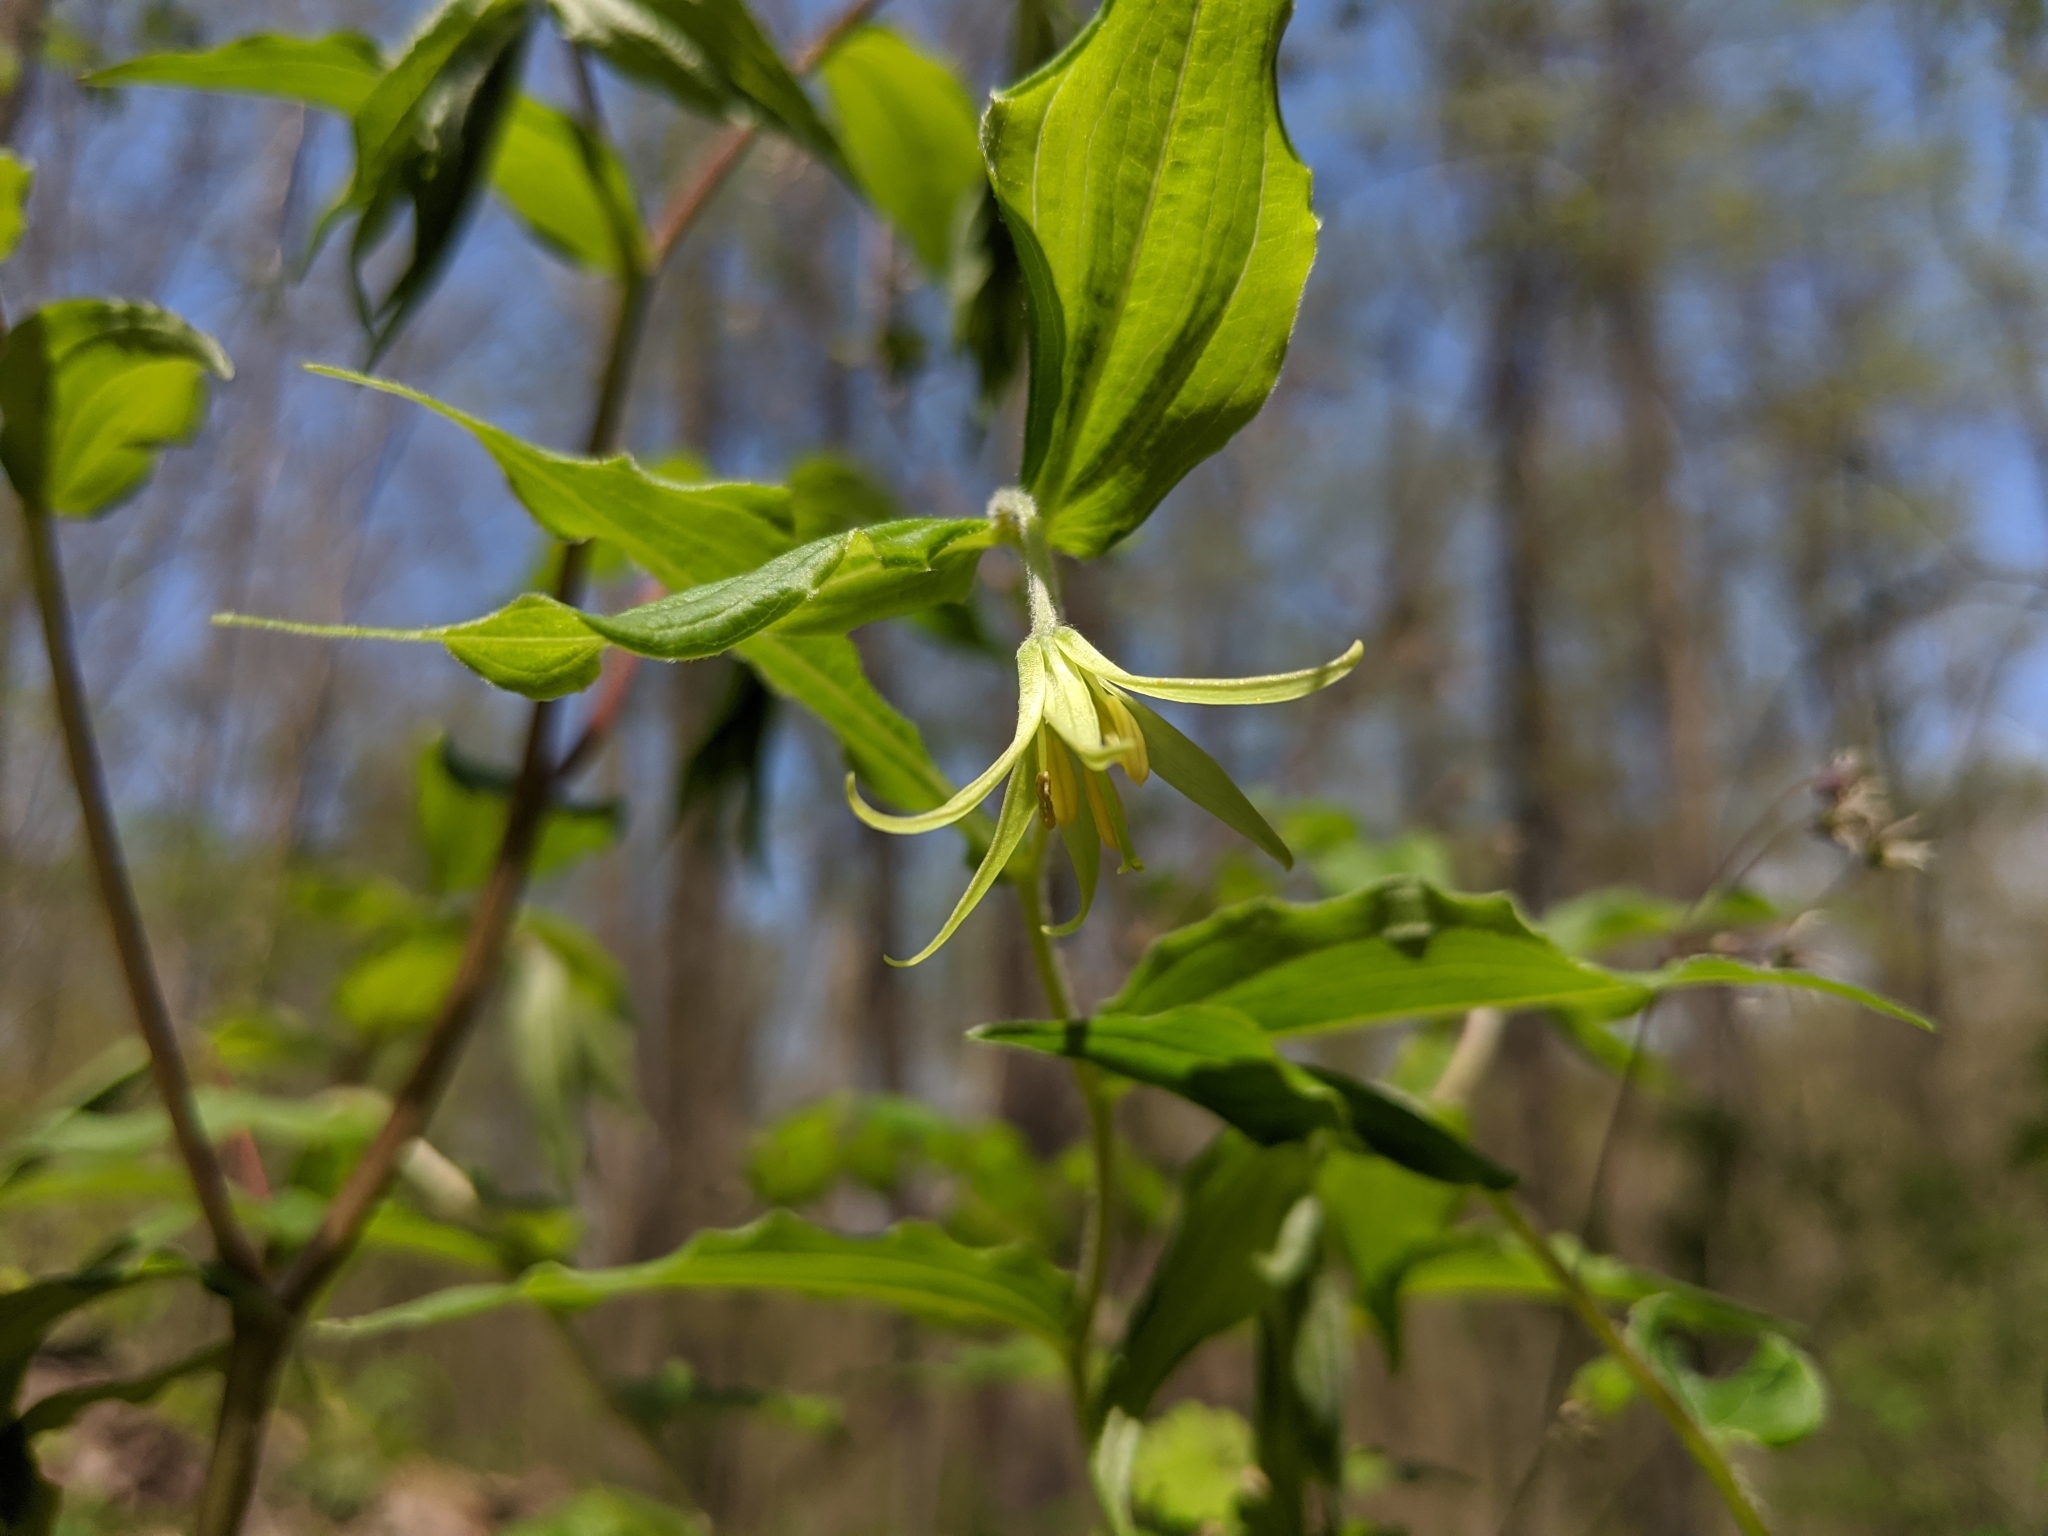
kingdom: Plantae
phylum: Tracheophyta
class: Liliopsida
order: Liliales
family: Liliaceae
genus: Prosartes
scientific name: Prosartes lanuginosa
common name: Hairy mandarin
